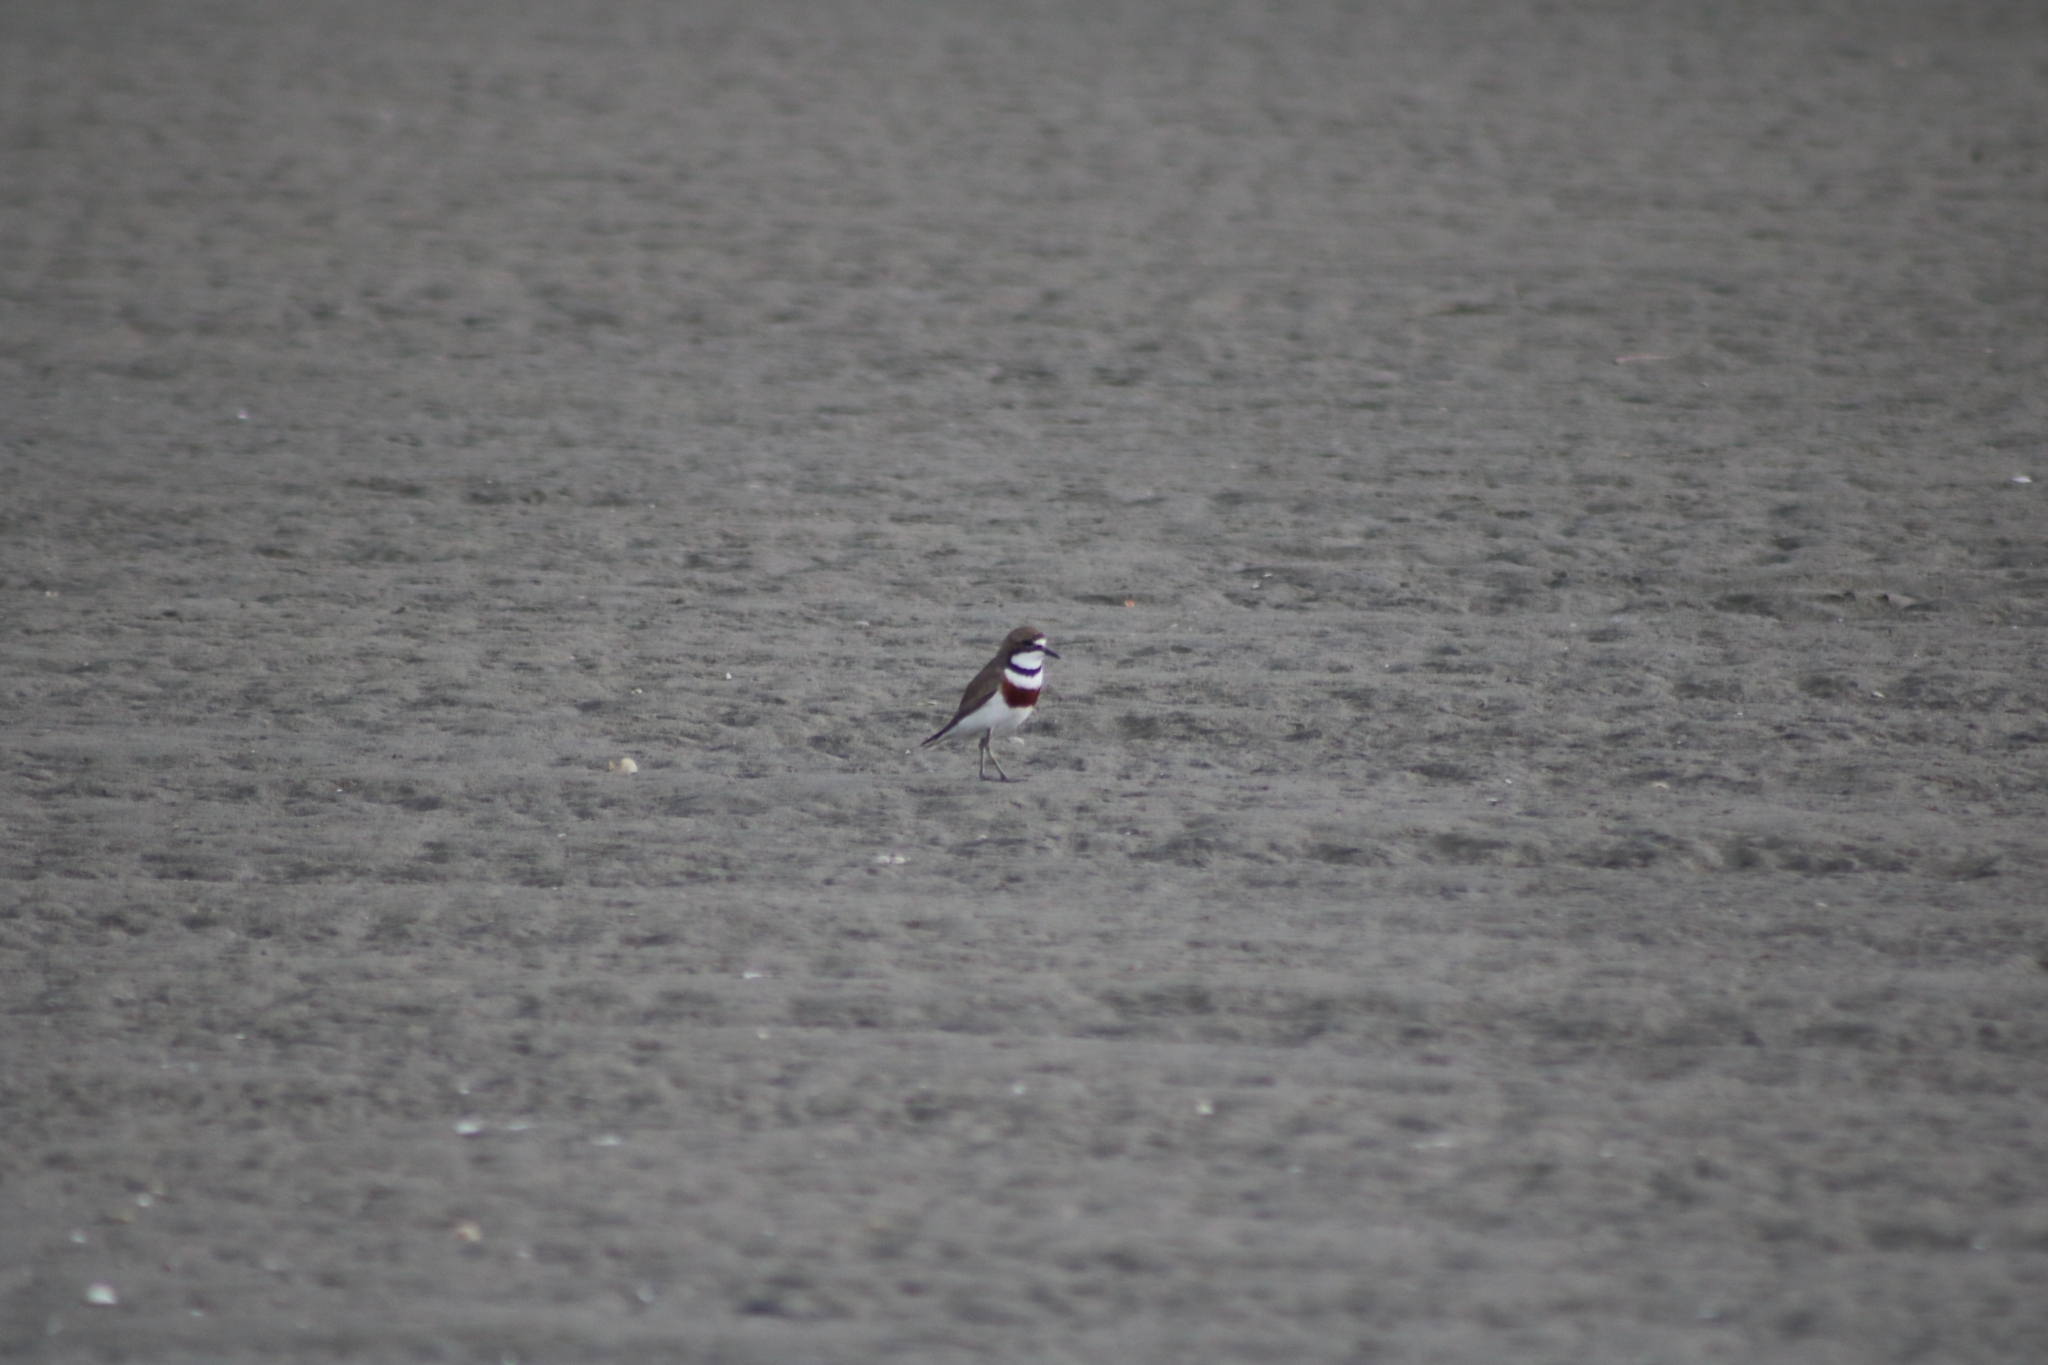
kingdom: Animalia
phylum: Chordata
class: Aves
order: Charadriiformes
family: Charadriidae
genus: Anarhynchus
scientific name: Anarhynchus
